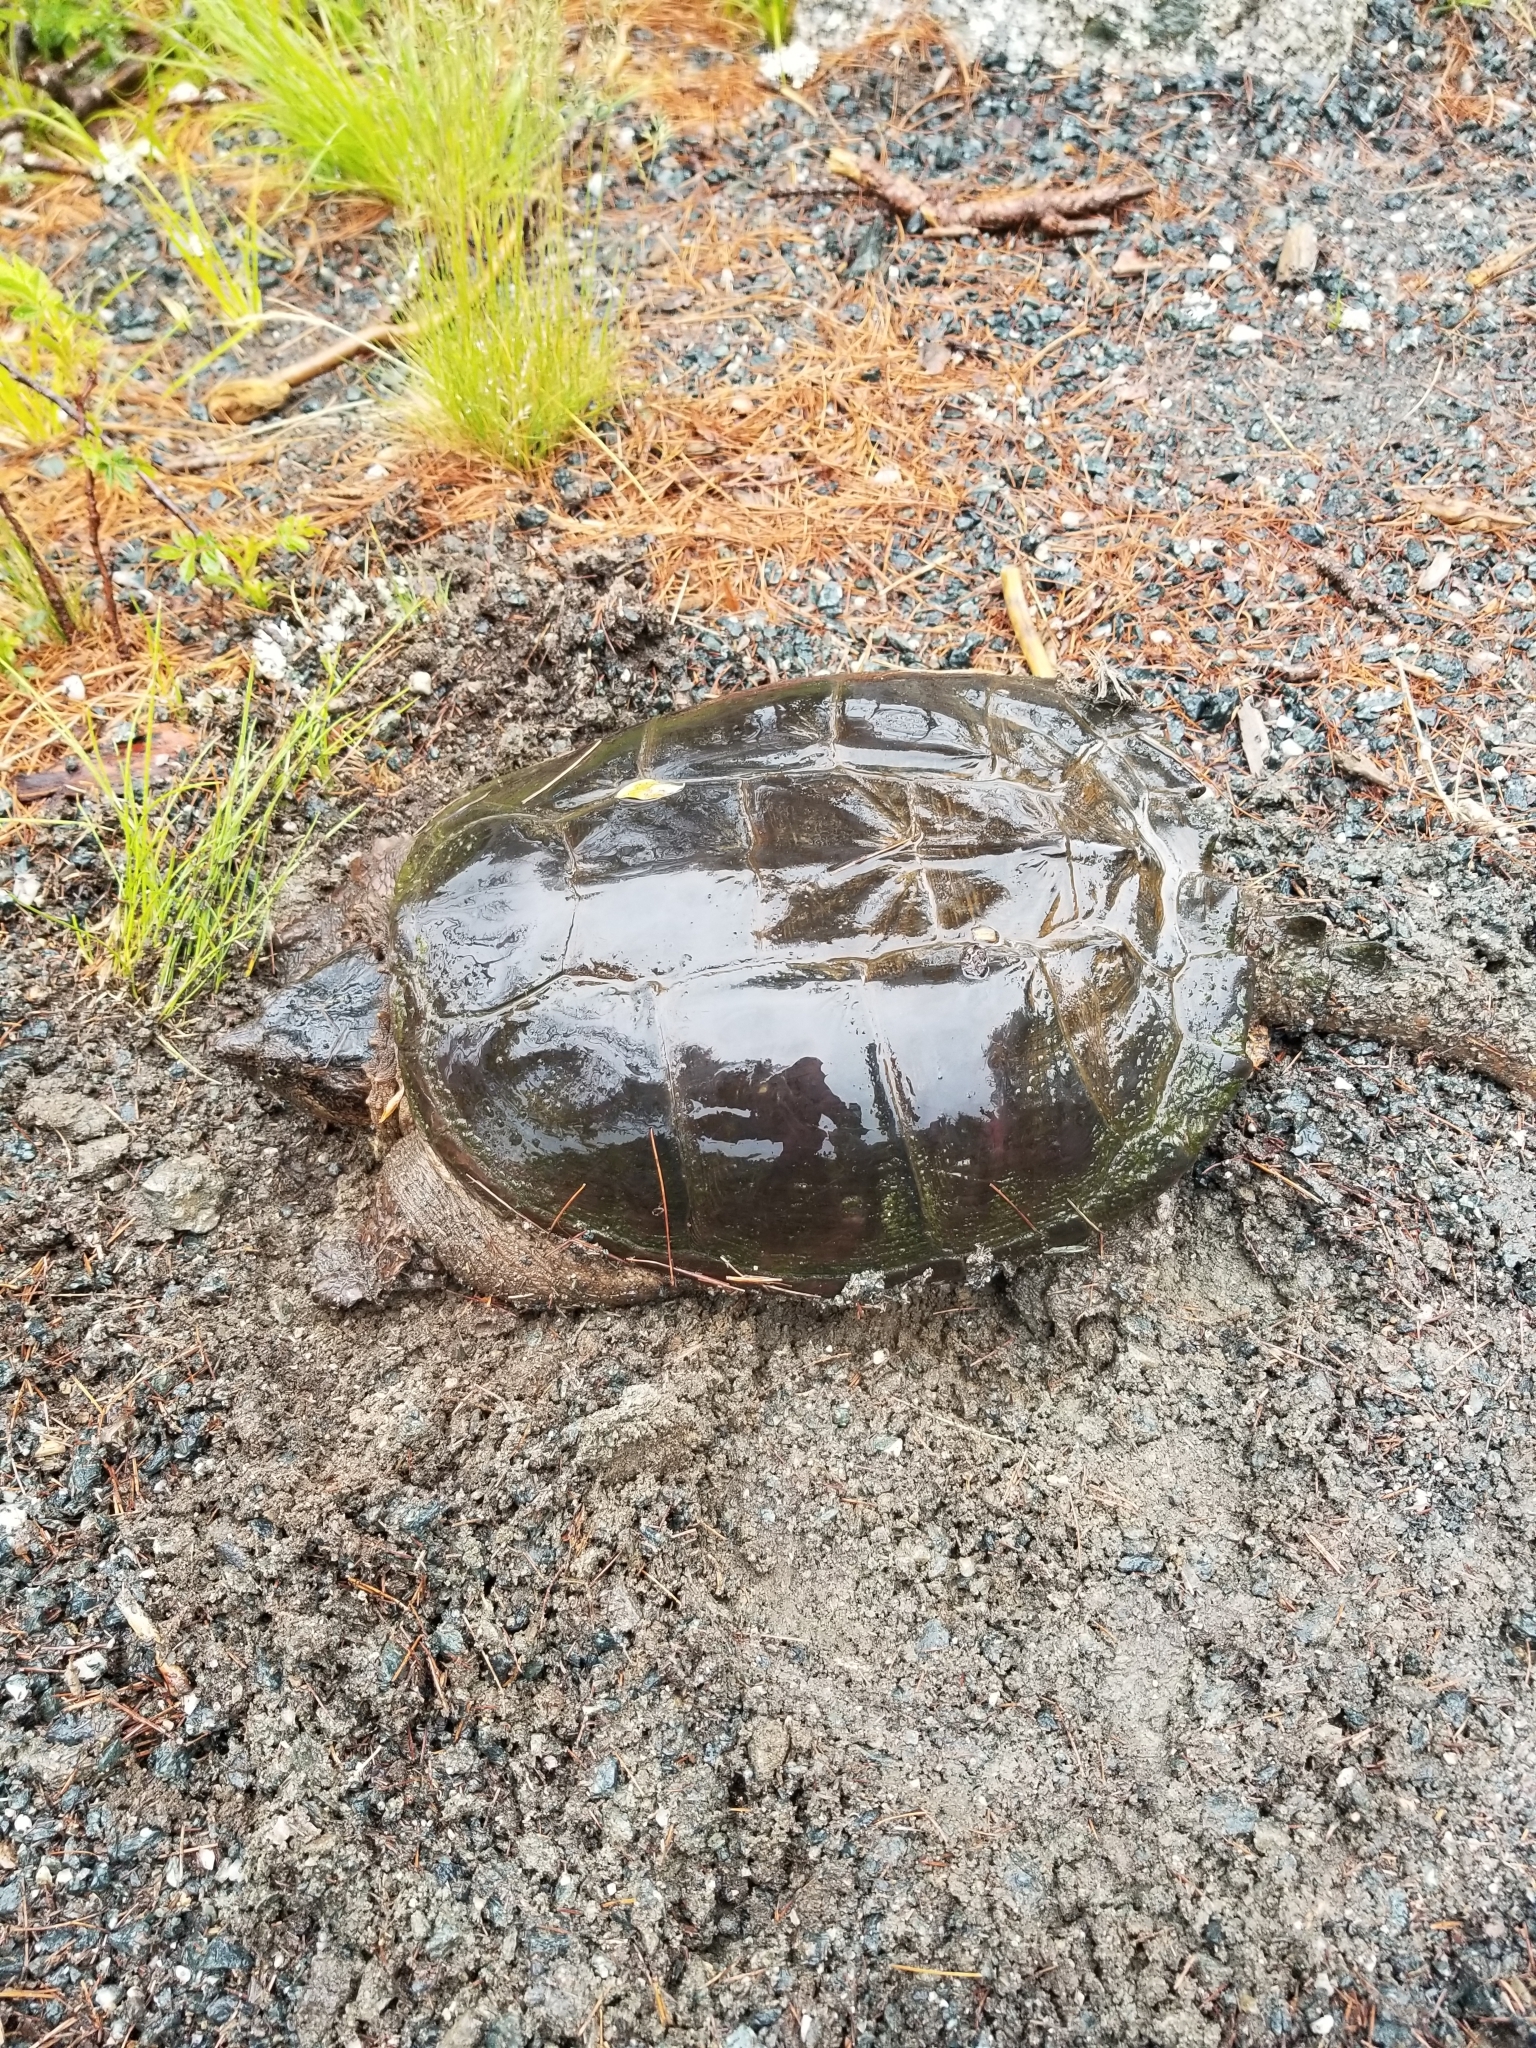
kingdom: Animalia
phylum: Chordata
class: Testudines
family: Chelydridae
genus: Chelydra
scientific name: Chelydra serpentina
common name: Common snapping turtle
